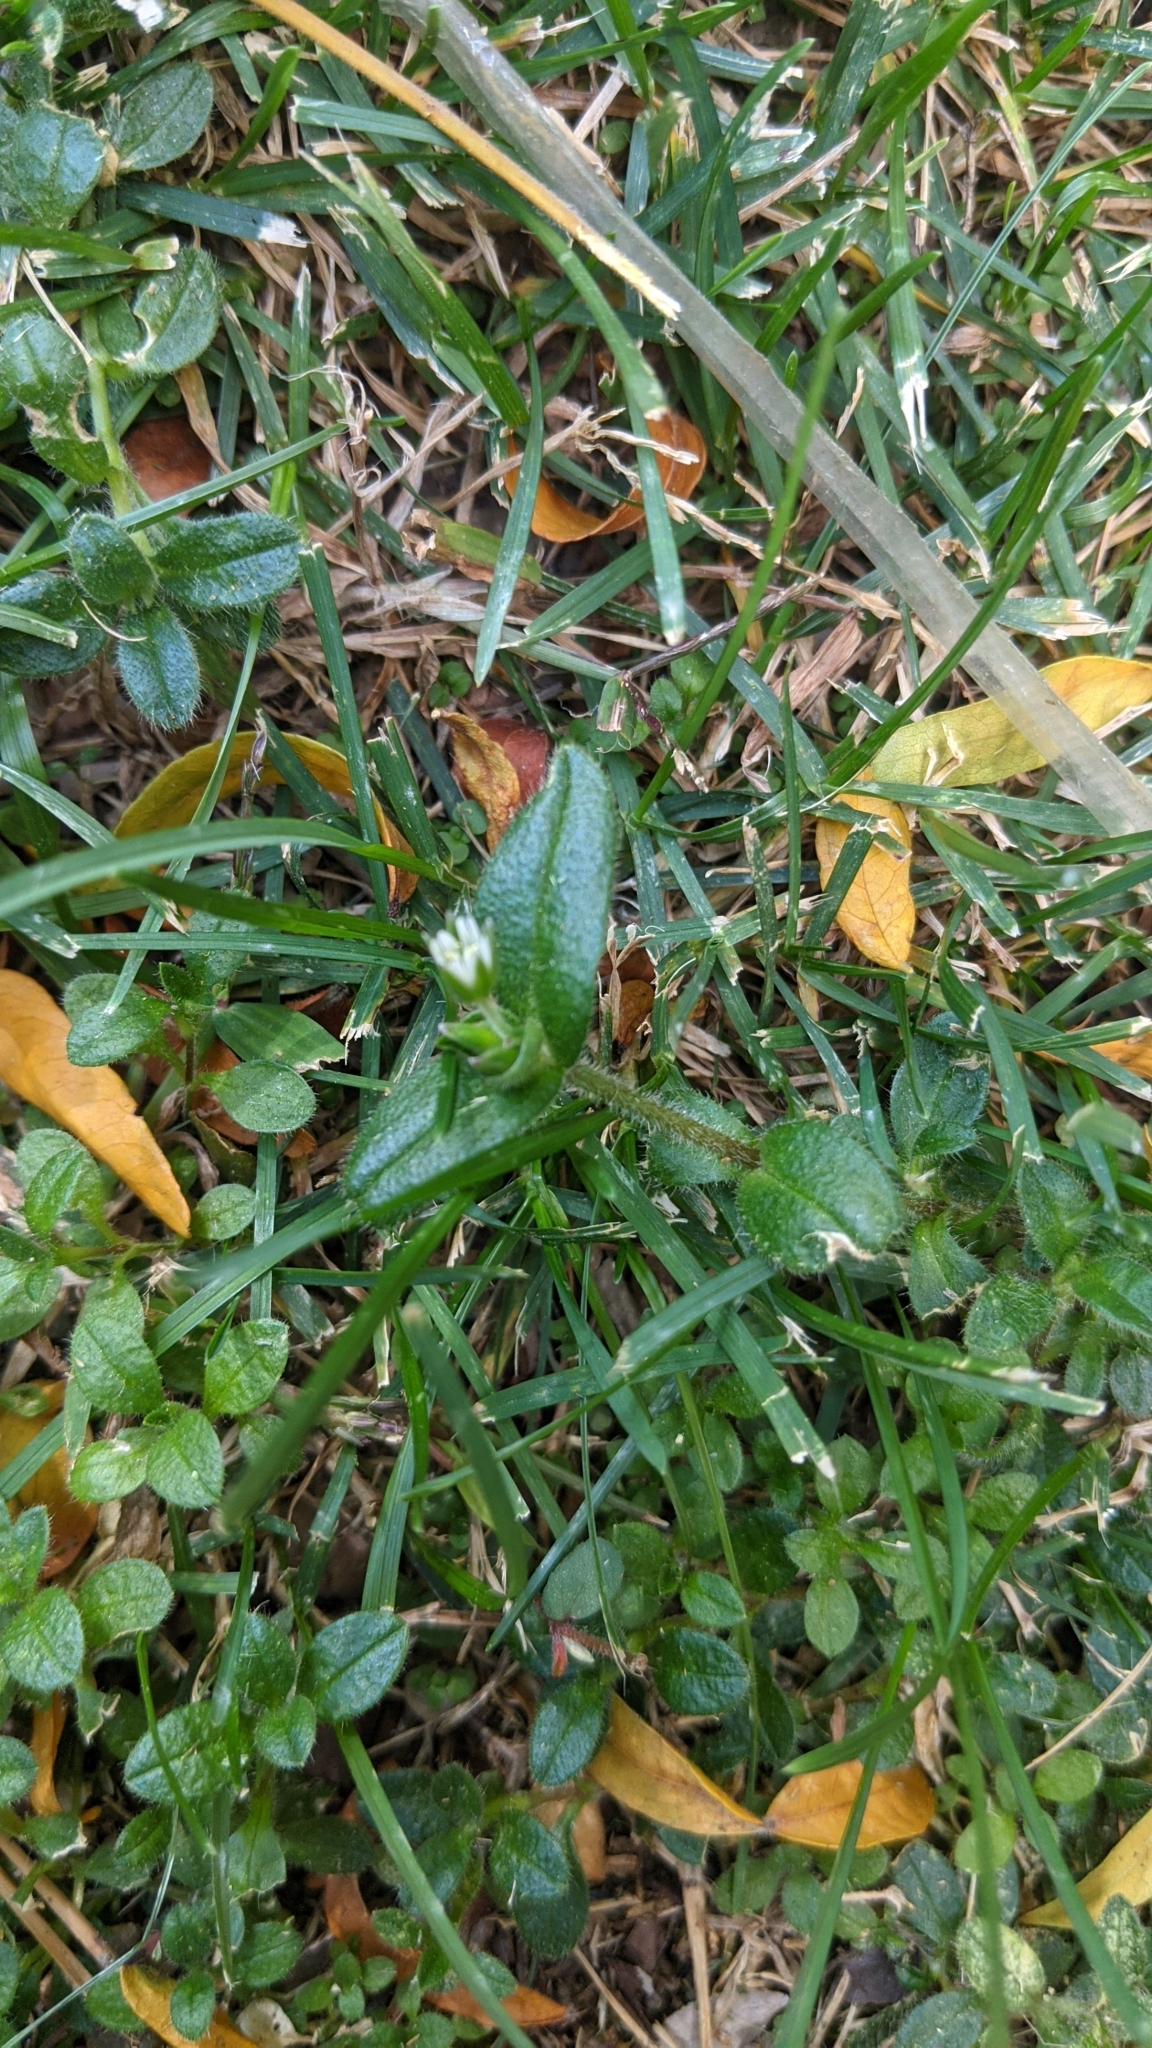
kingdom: Plantae
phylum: Tracheophyta
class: Magnoliopsida
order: Caryophyllales
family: Caryophyllaceae
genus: Cerastium
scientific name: Cerastium fontanum
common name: Common mouse-ear
